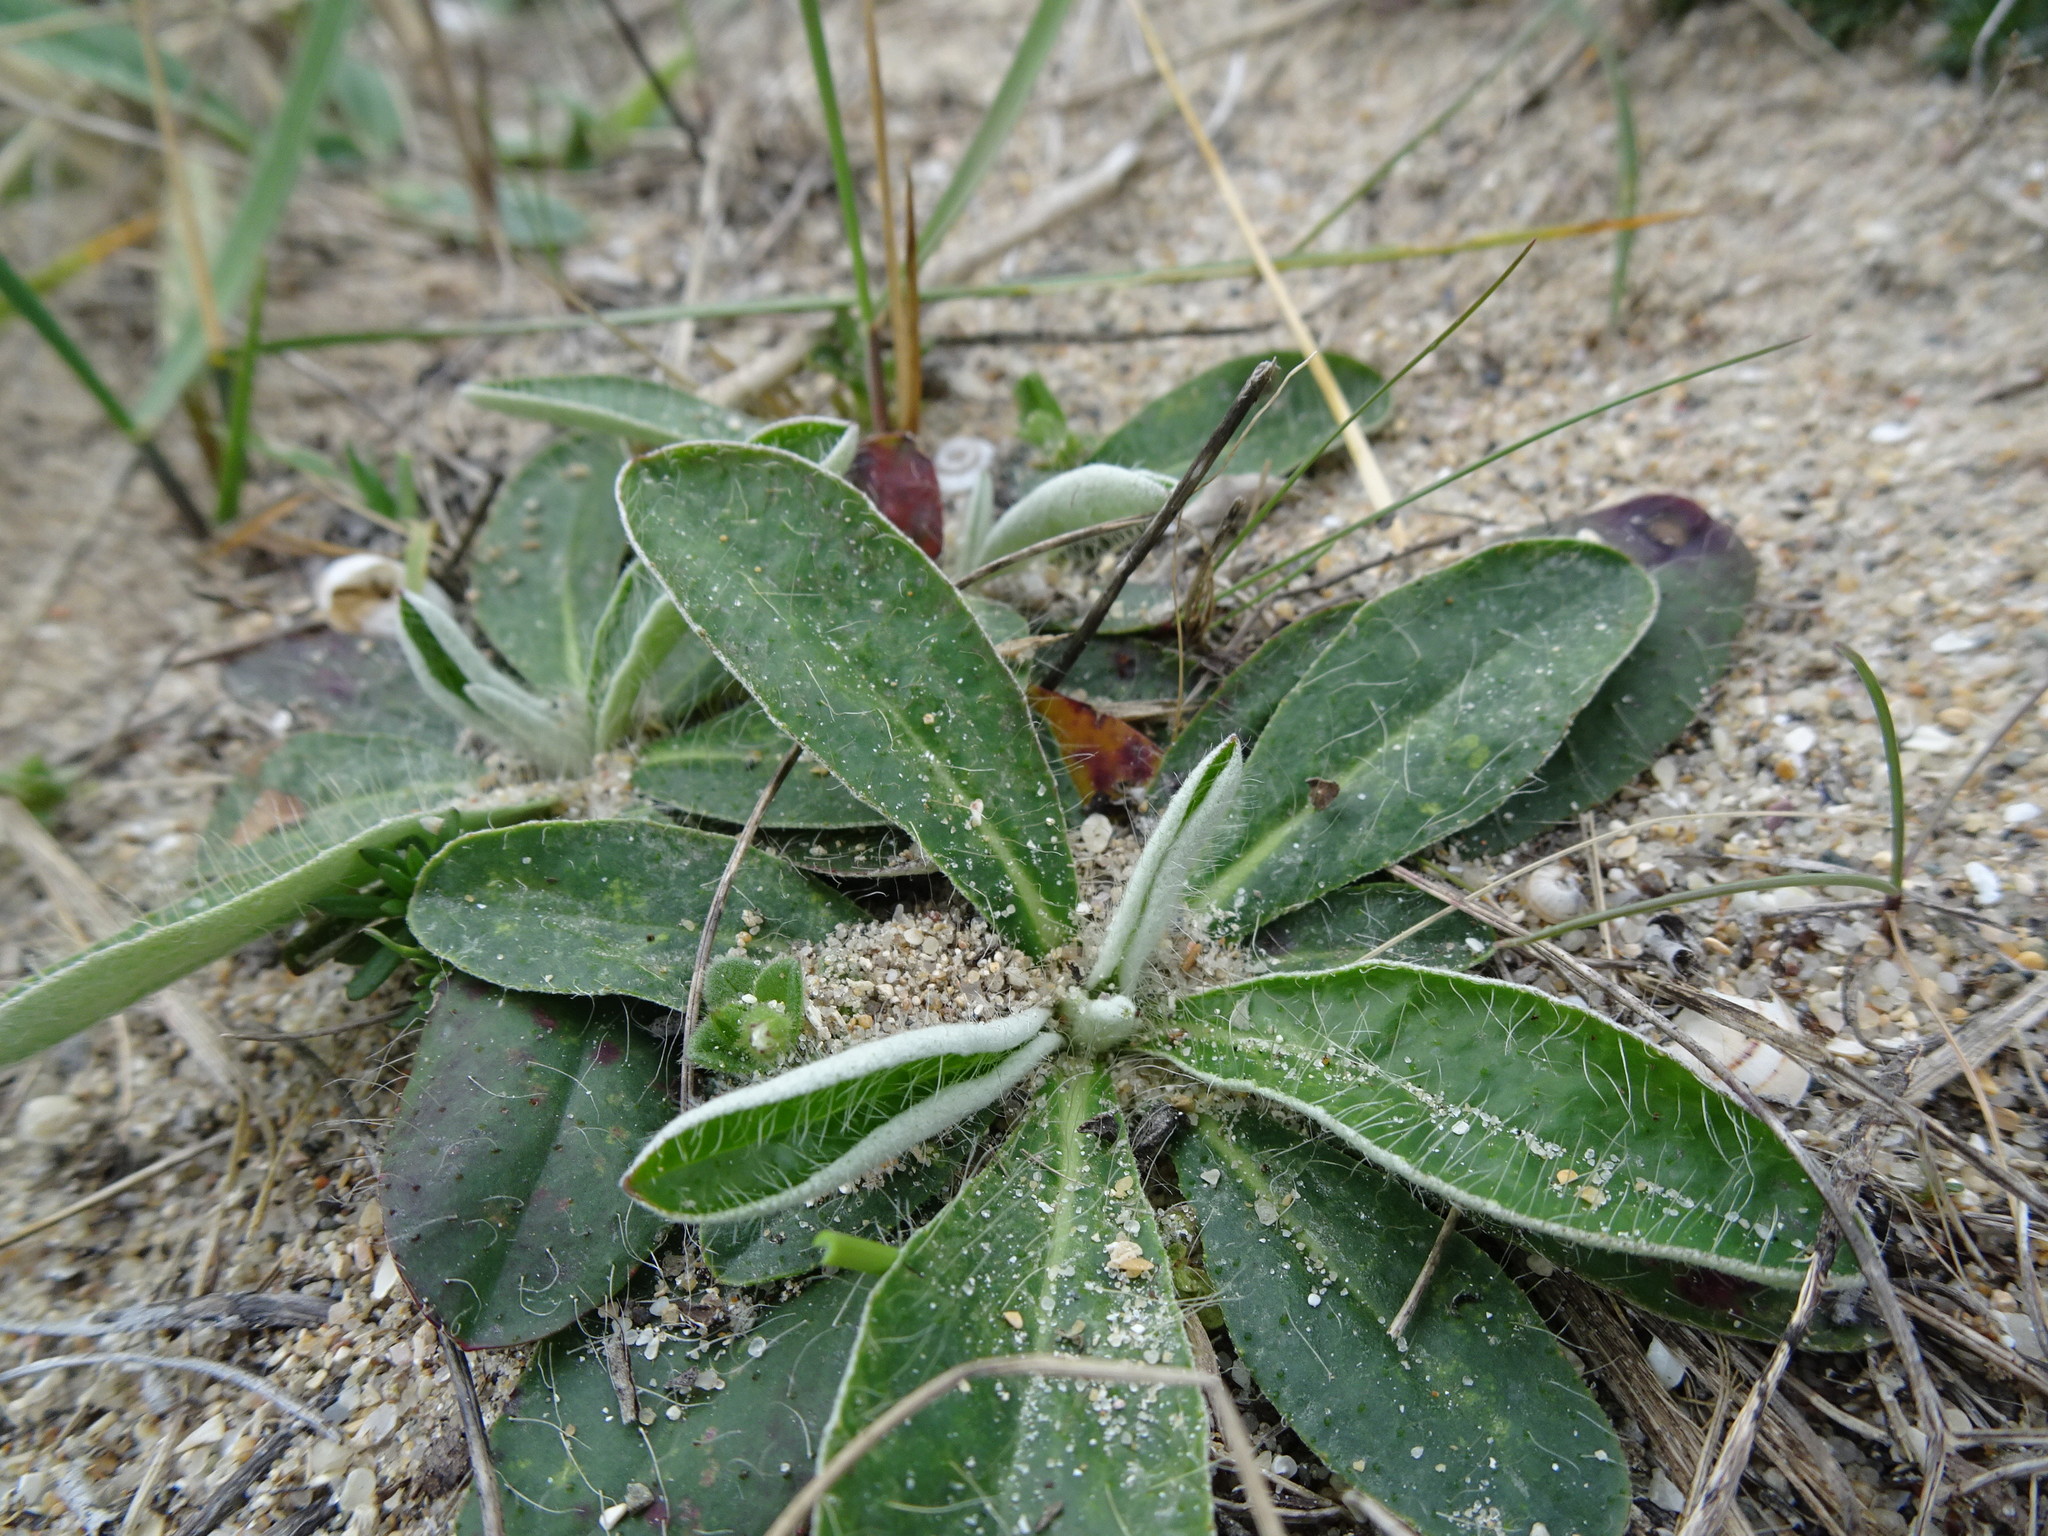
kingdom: Plantae
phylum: Tracheophyta
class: Magnoliopsida
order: Asterales
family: Asteraceae
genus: Pilosella
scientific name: Pilosella officinarum
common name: Mouse-ear hawkweed
